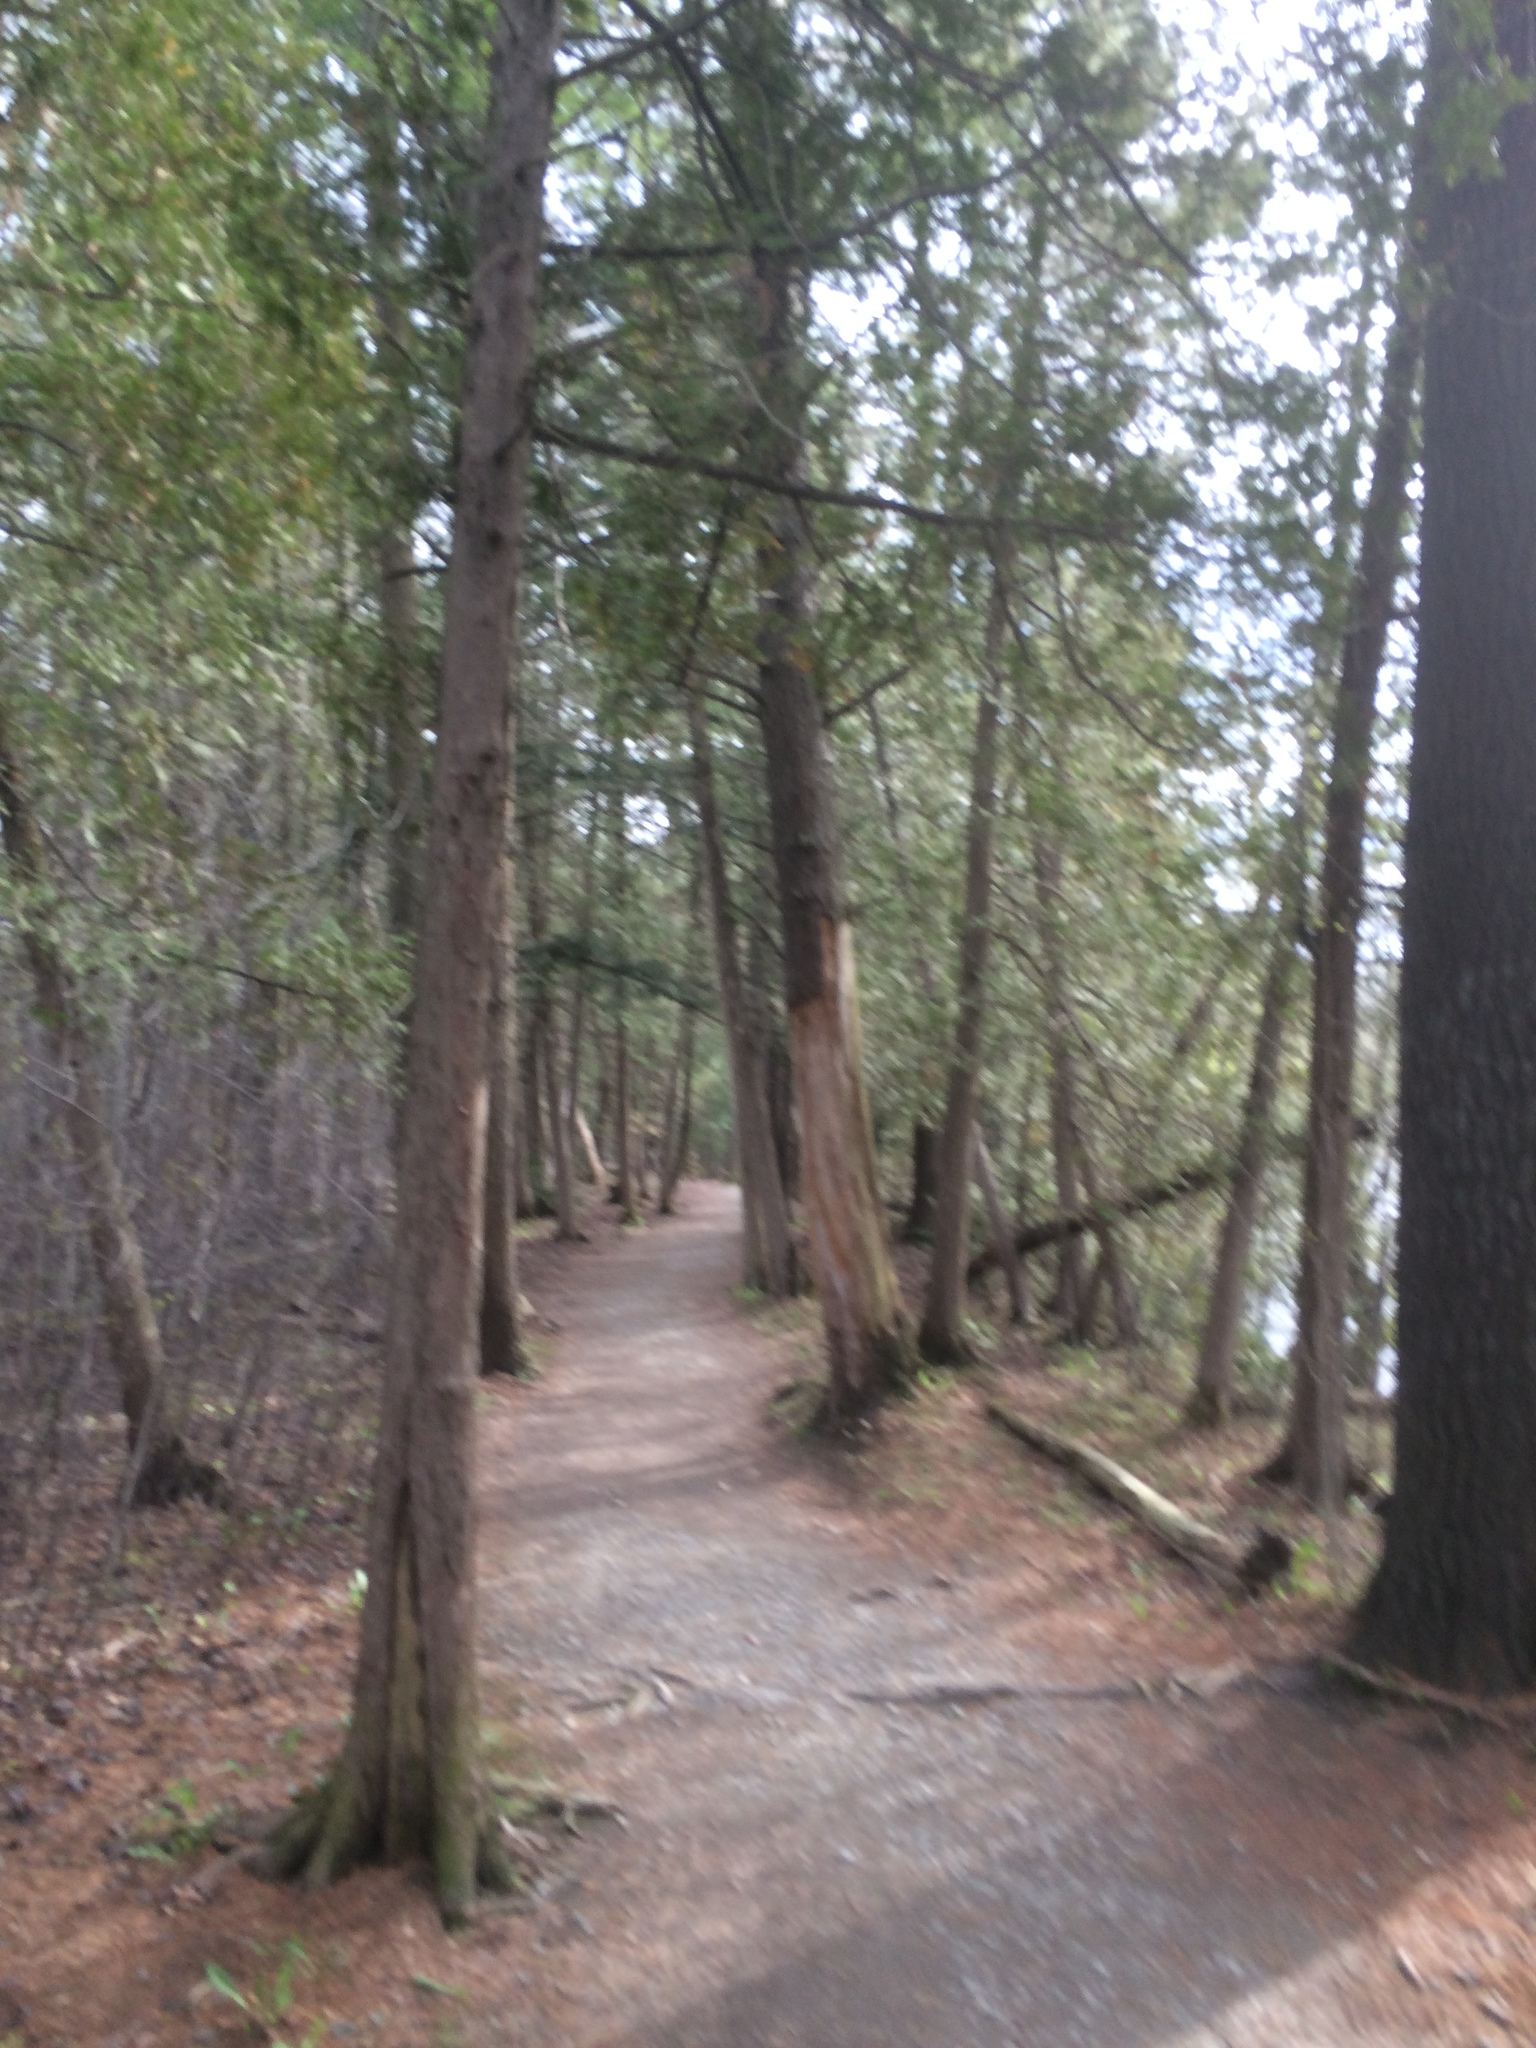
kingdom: Plantae
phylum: Tracheophyta
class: Pinopsida
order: Pinales
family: Cupressaceae
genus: Thuja
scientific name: Thuja occidentalis
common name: Northern white-cedar
